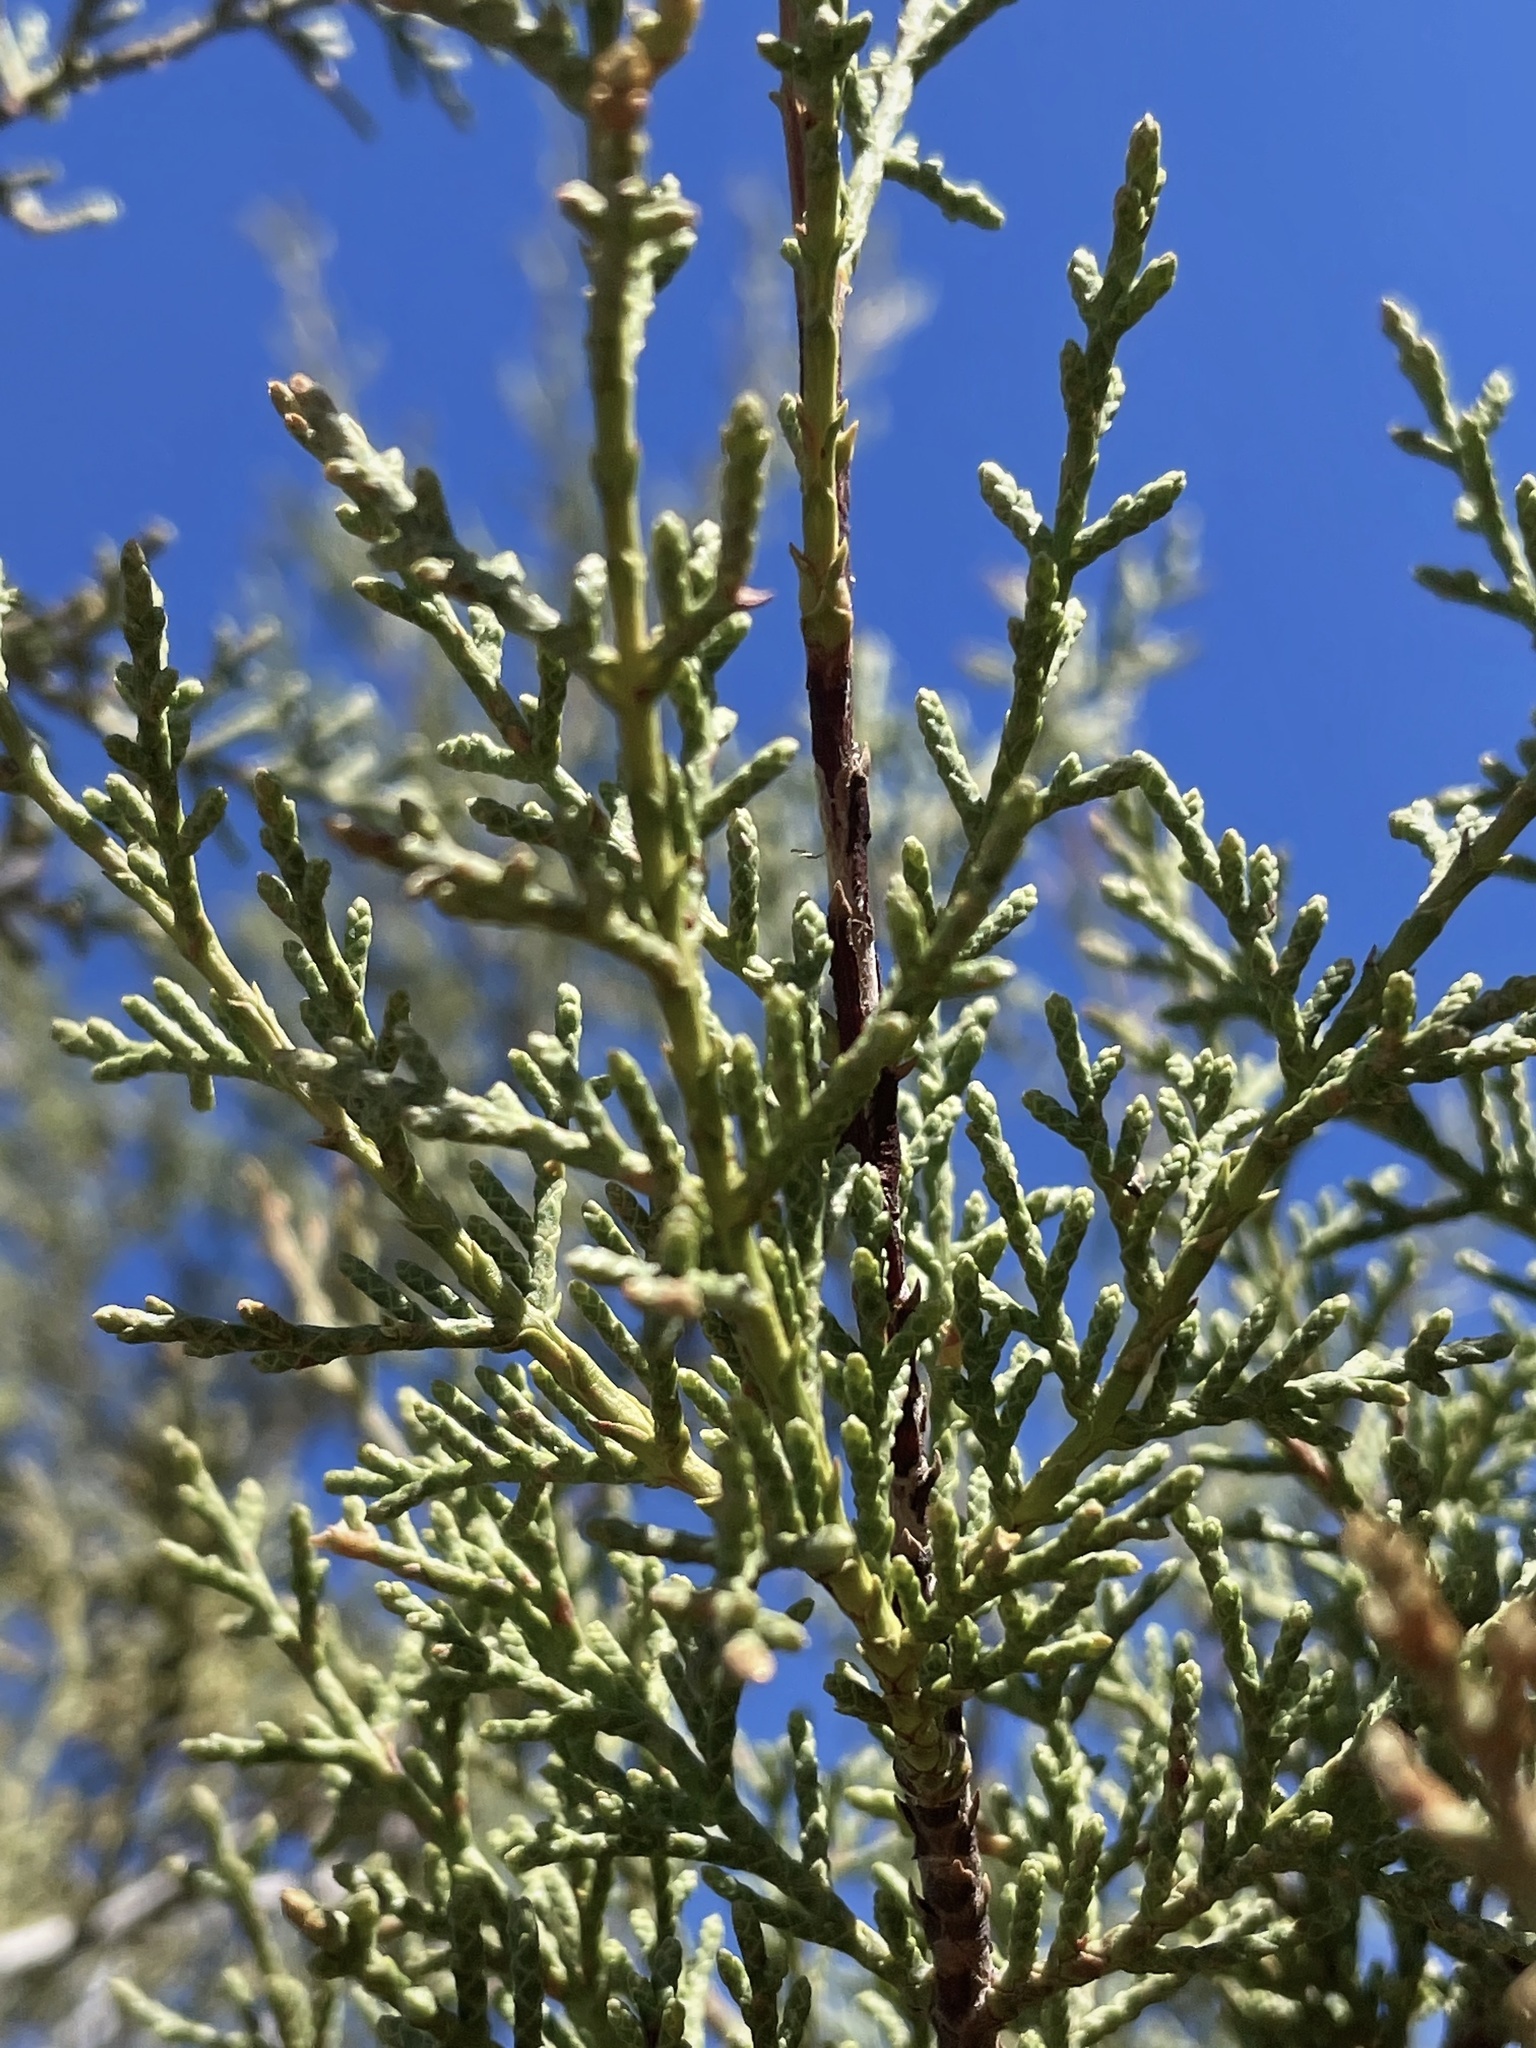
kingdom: Plantae
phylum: Tracheophyta
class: Pinopsida
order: Pinales
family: Cupressaceae
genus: Cupressus
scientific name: Cupressus guadalupensis
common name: Forbes cypress
